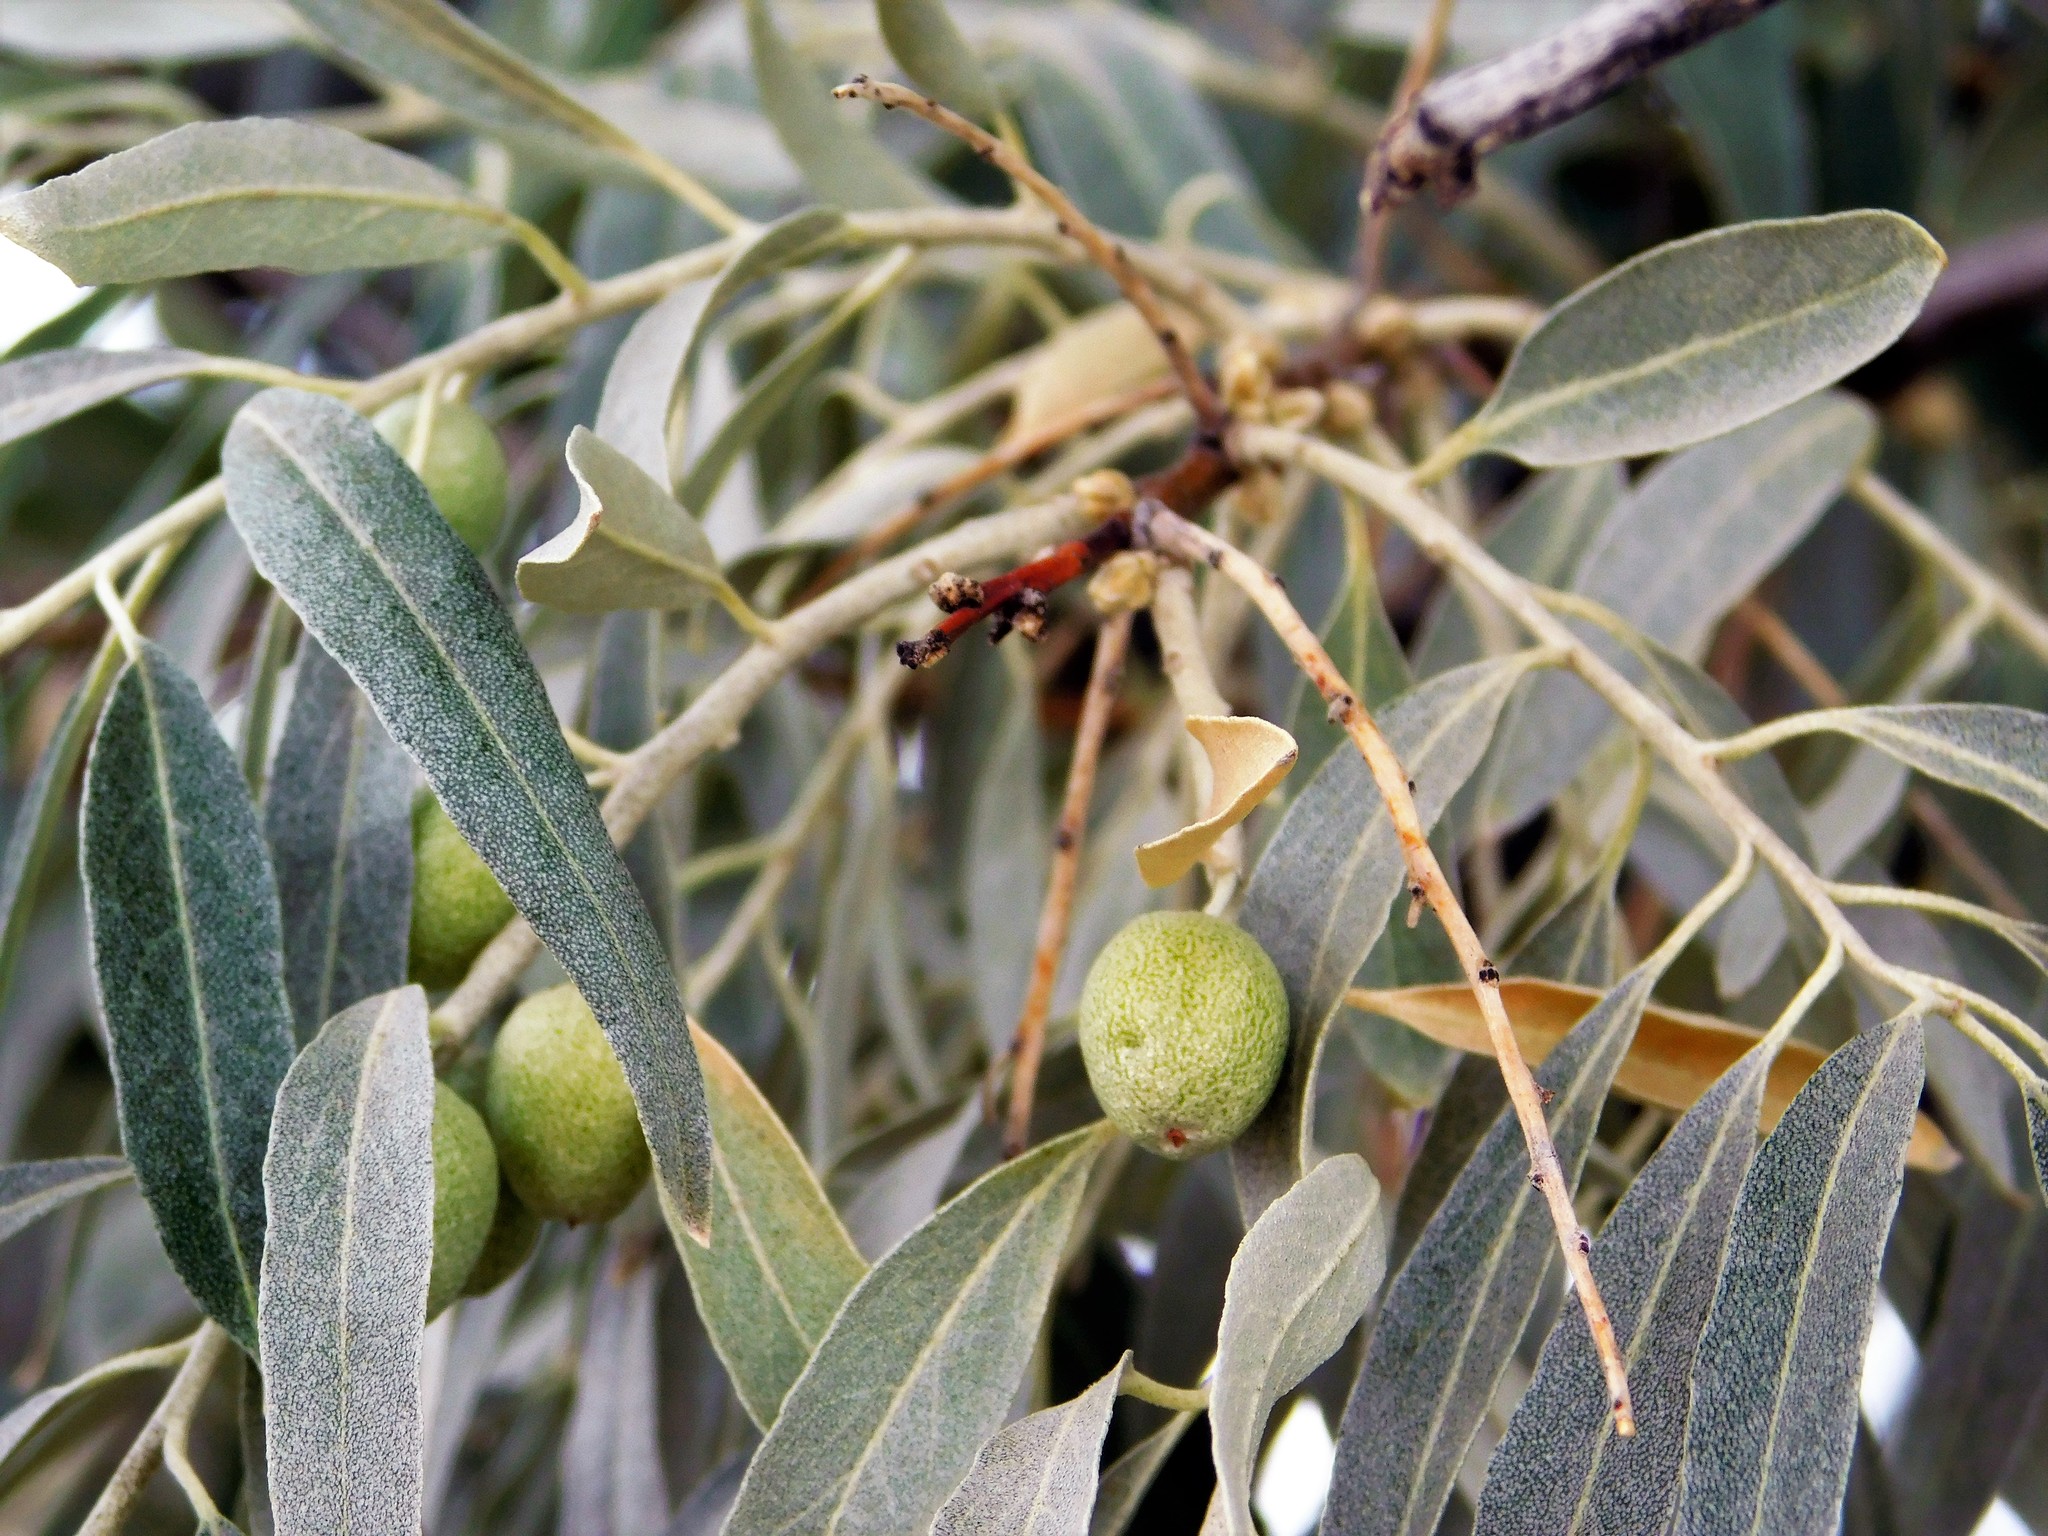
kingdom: Plantae
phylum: Tracheophyta
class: Magnoliopsida
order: Rosales
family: Elaeagnaceae
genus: Elaeagnus
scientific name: Elaeagnus angustifolia
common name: Russian olive
